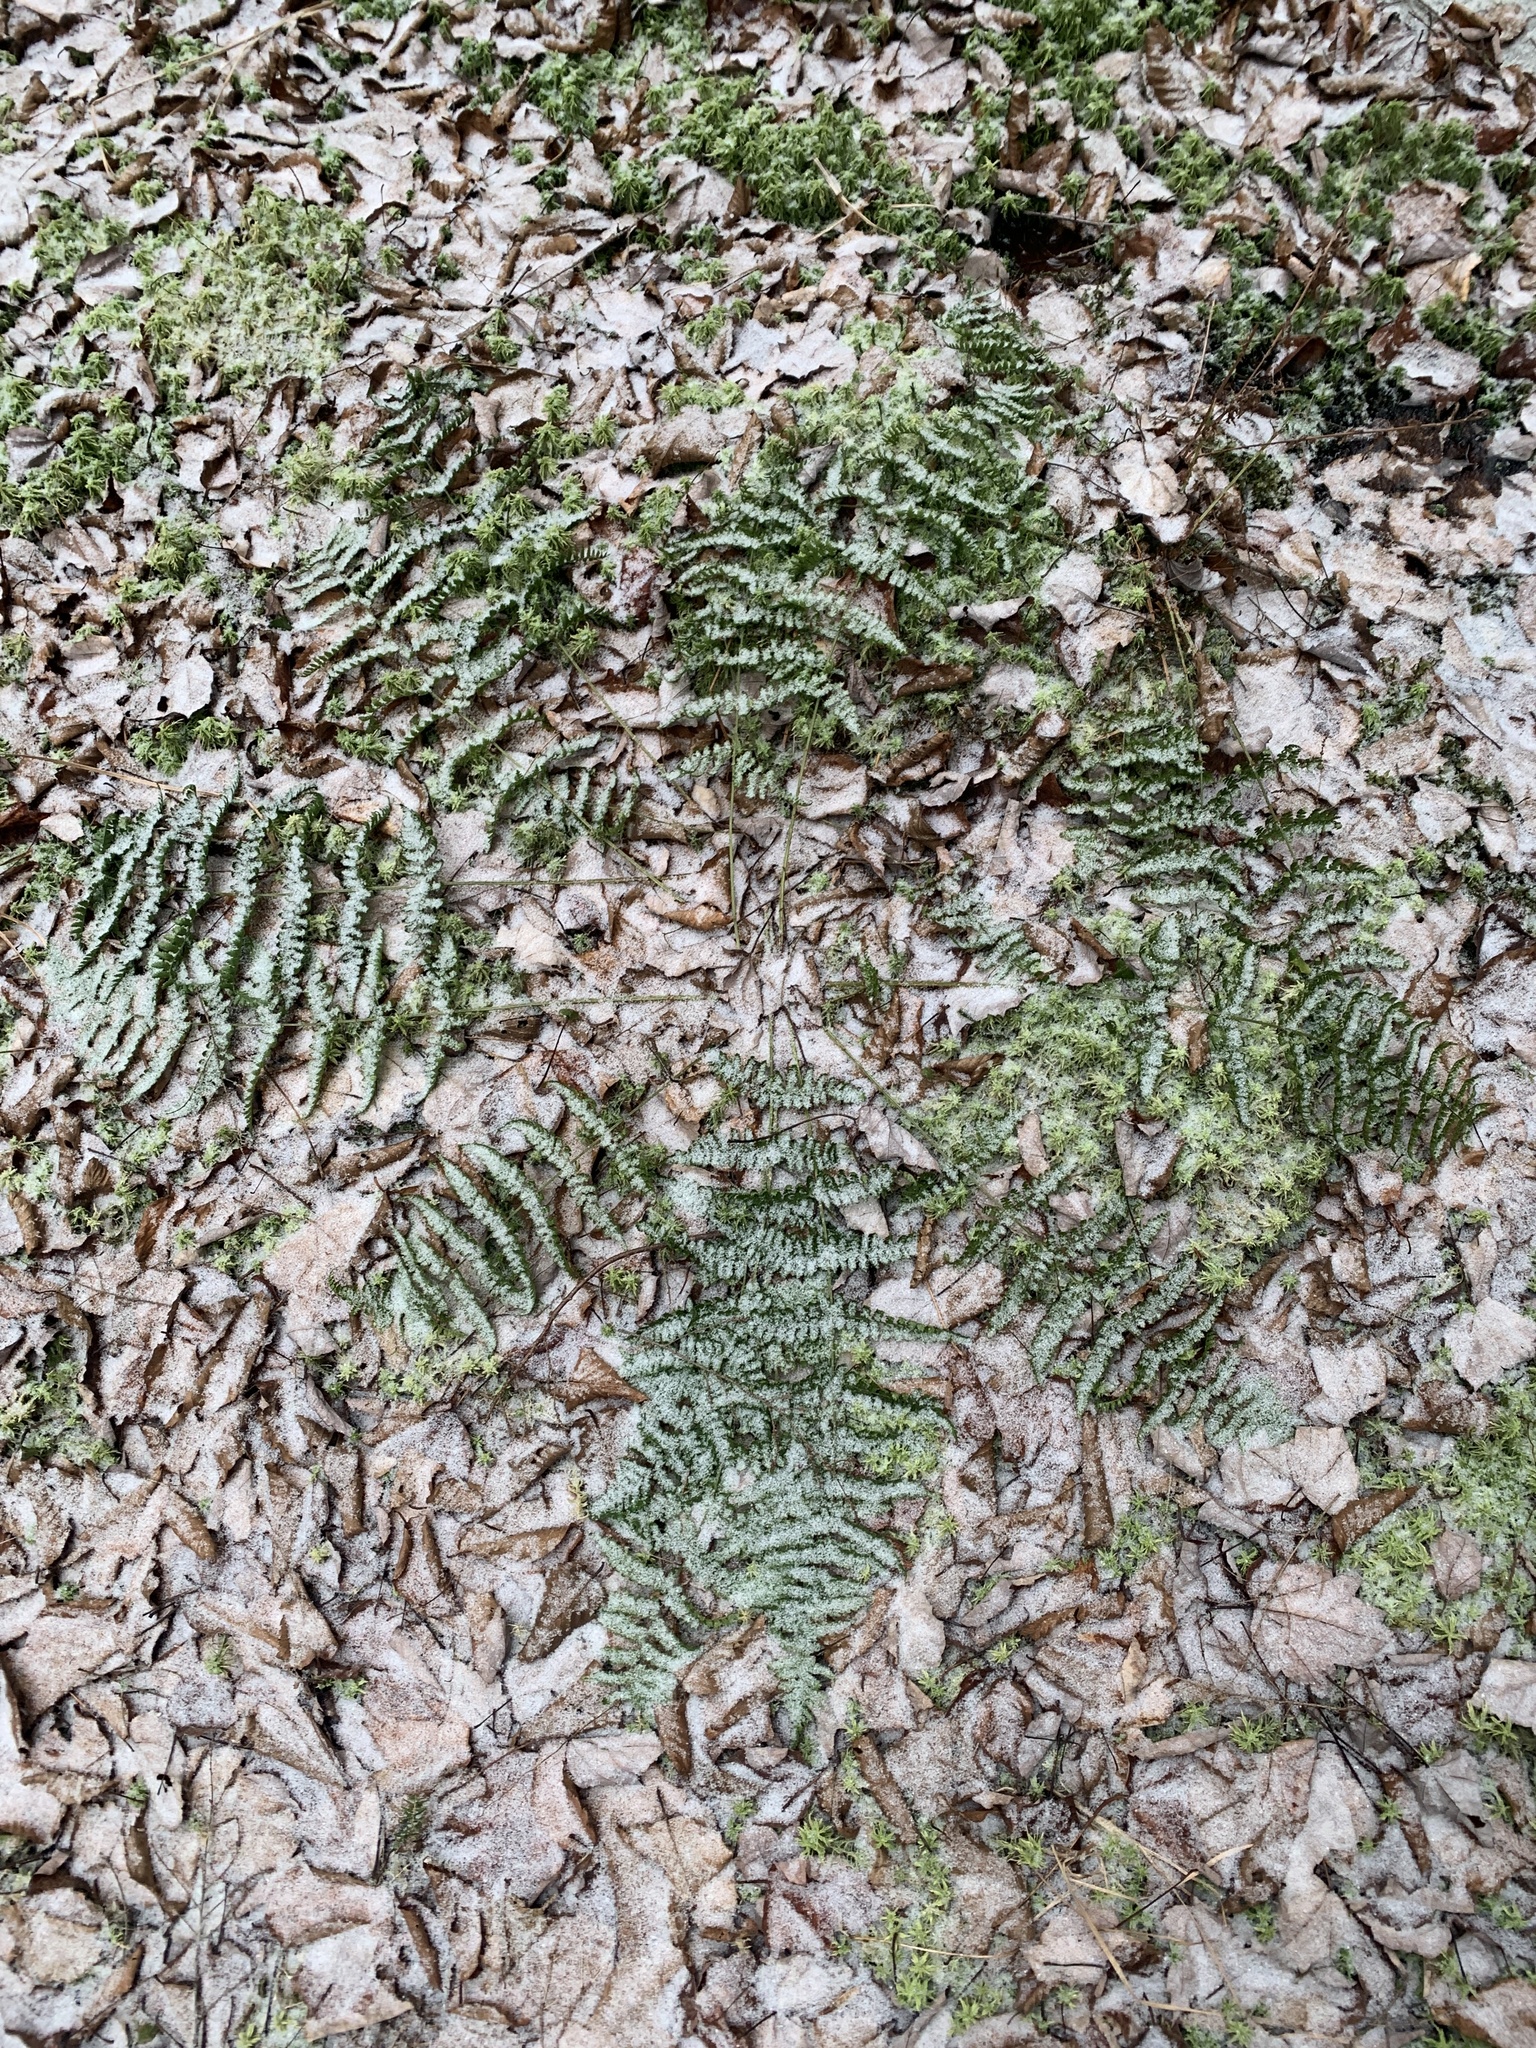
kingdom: Plantae
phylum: Tracheophyta
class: Polypodiopsida
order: Polypodiales
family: Dryopteridaceae
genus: Dryopteris
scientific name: Dryopteris intermedia
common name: Evergreen wood fern
